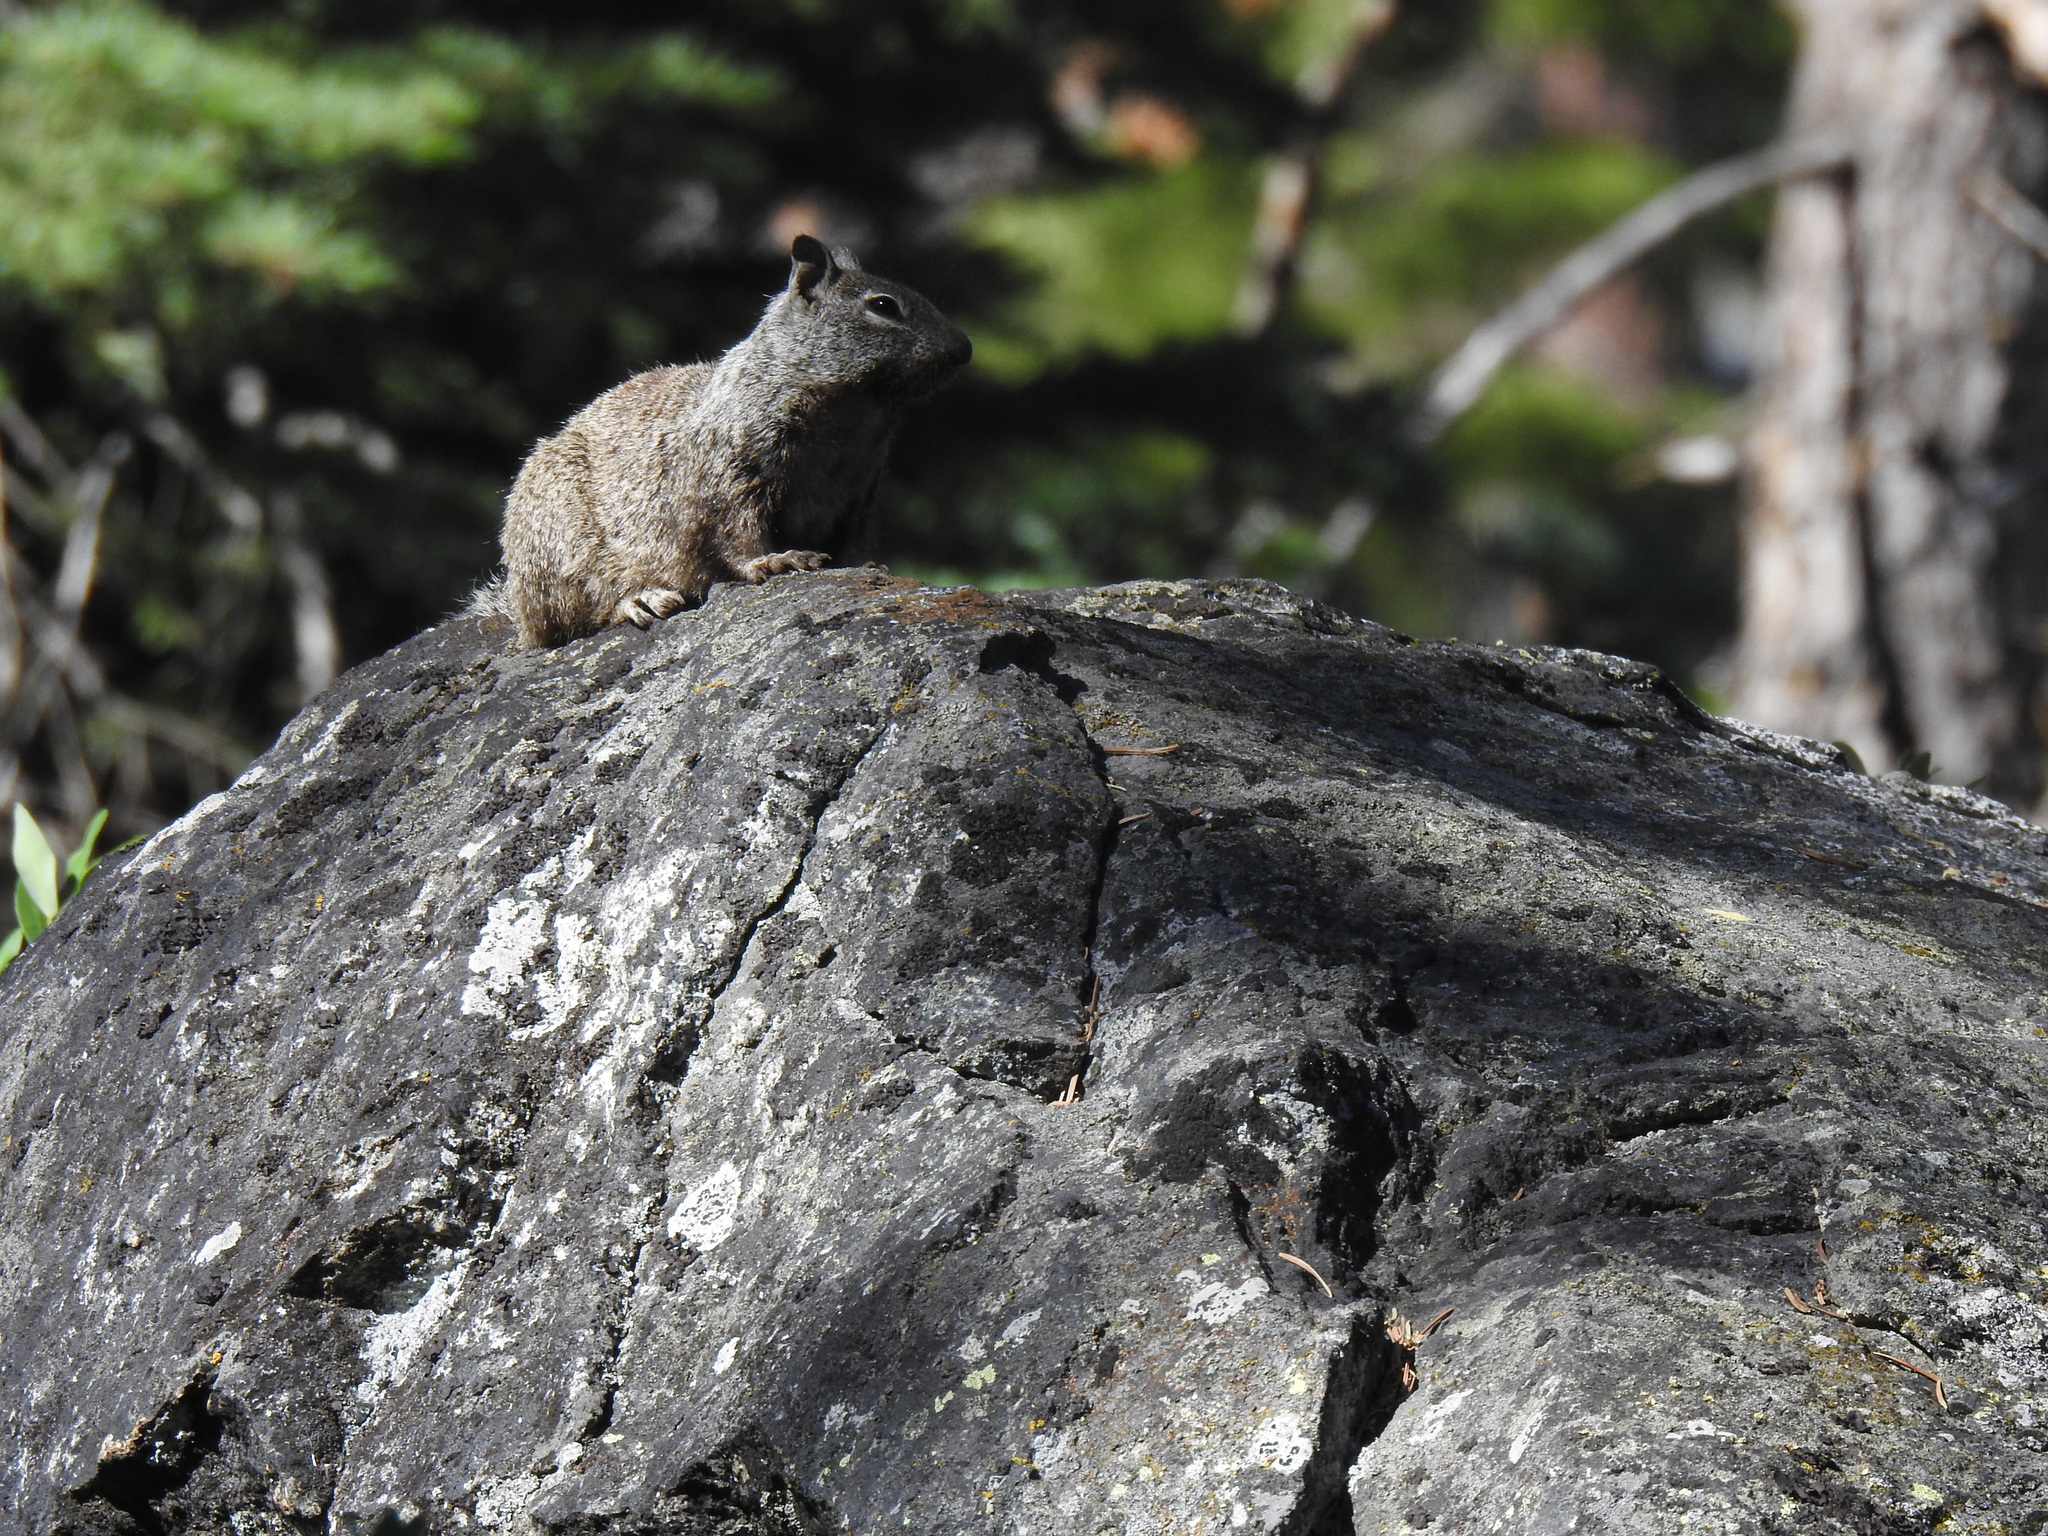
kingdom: Animalia
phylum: Chordata
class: Mammalia
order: Rodentia
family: Sciuridae
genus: Otospermophilus
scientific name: Otospermophilus beecheyi
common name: California ground squirrel
